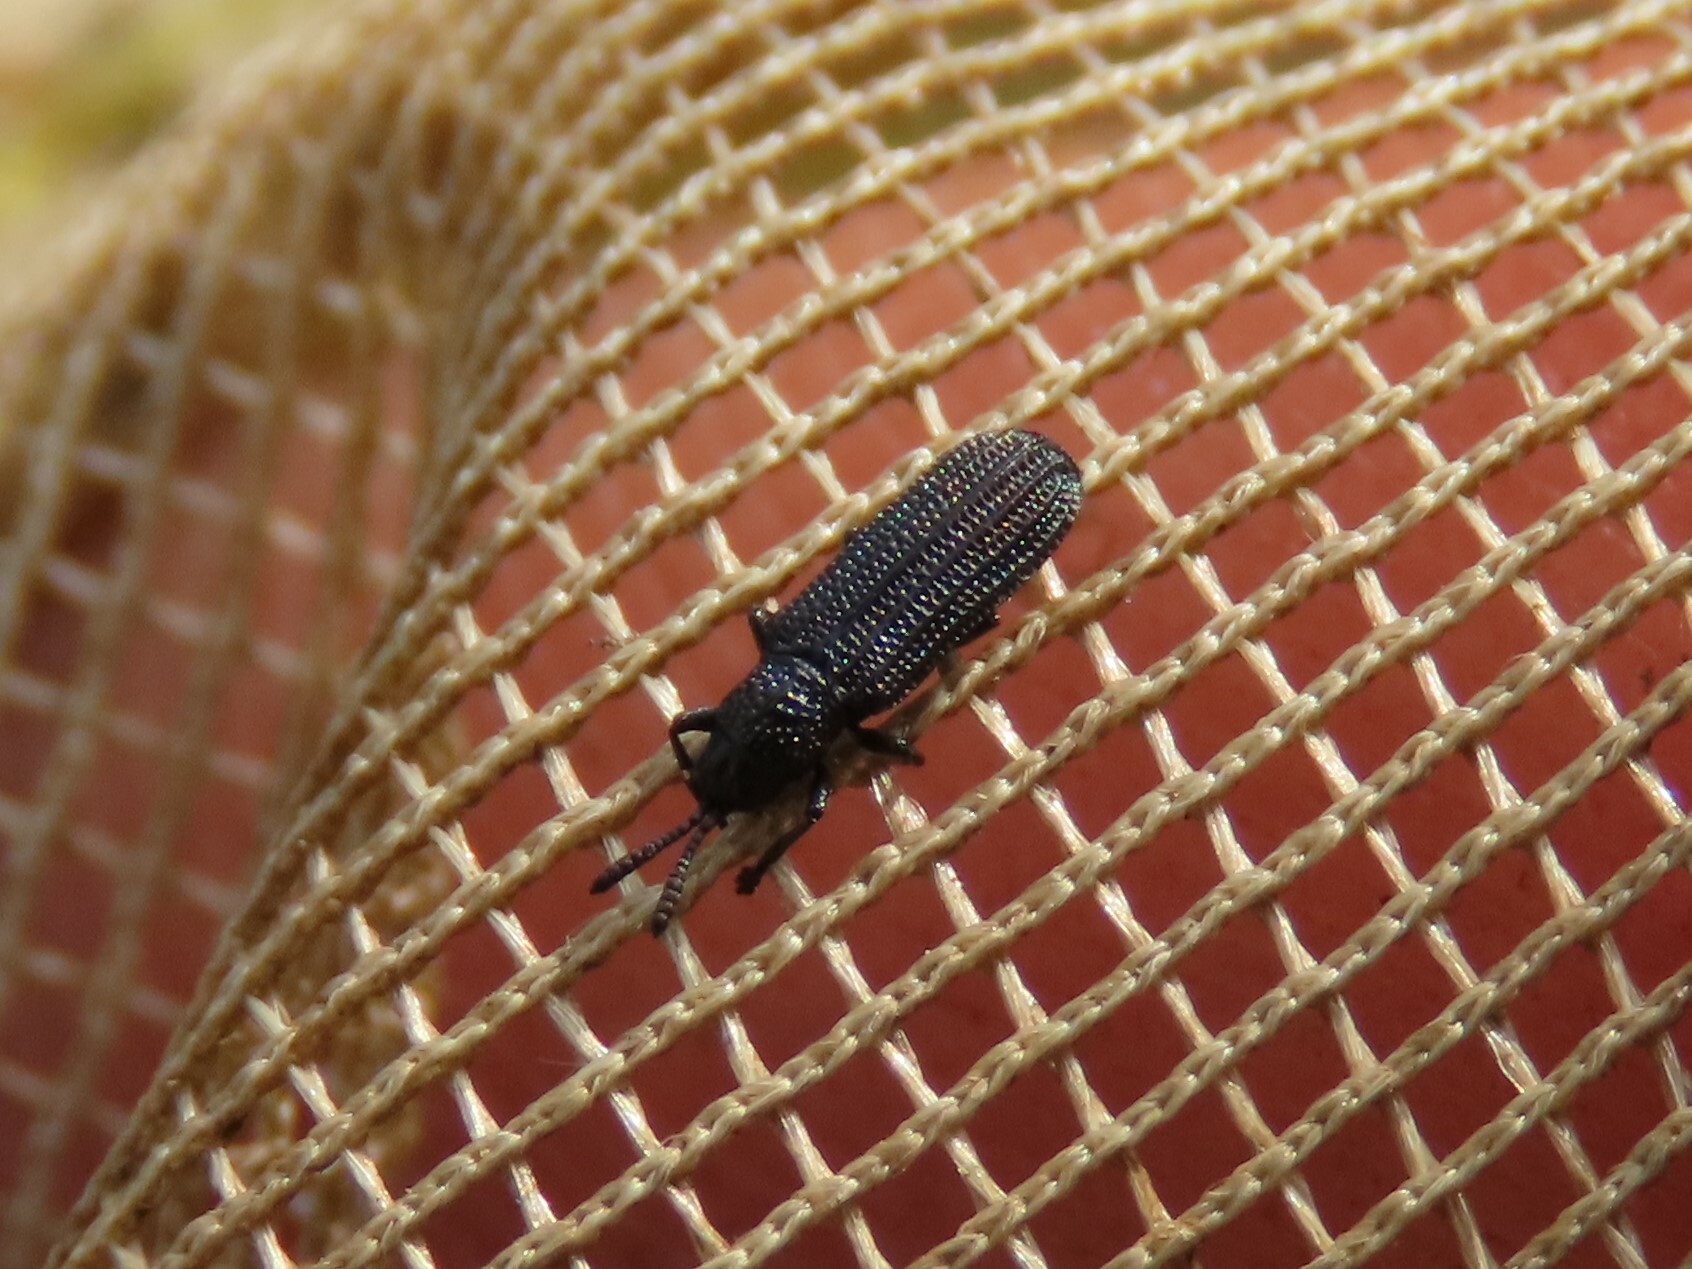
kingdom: Animalia
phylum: Arthropoda
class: Insecta
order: Coleoptera
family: Chrysomelidae
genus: Anisostena
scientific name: Anisostena nigrita
